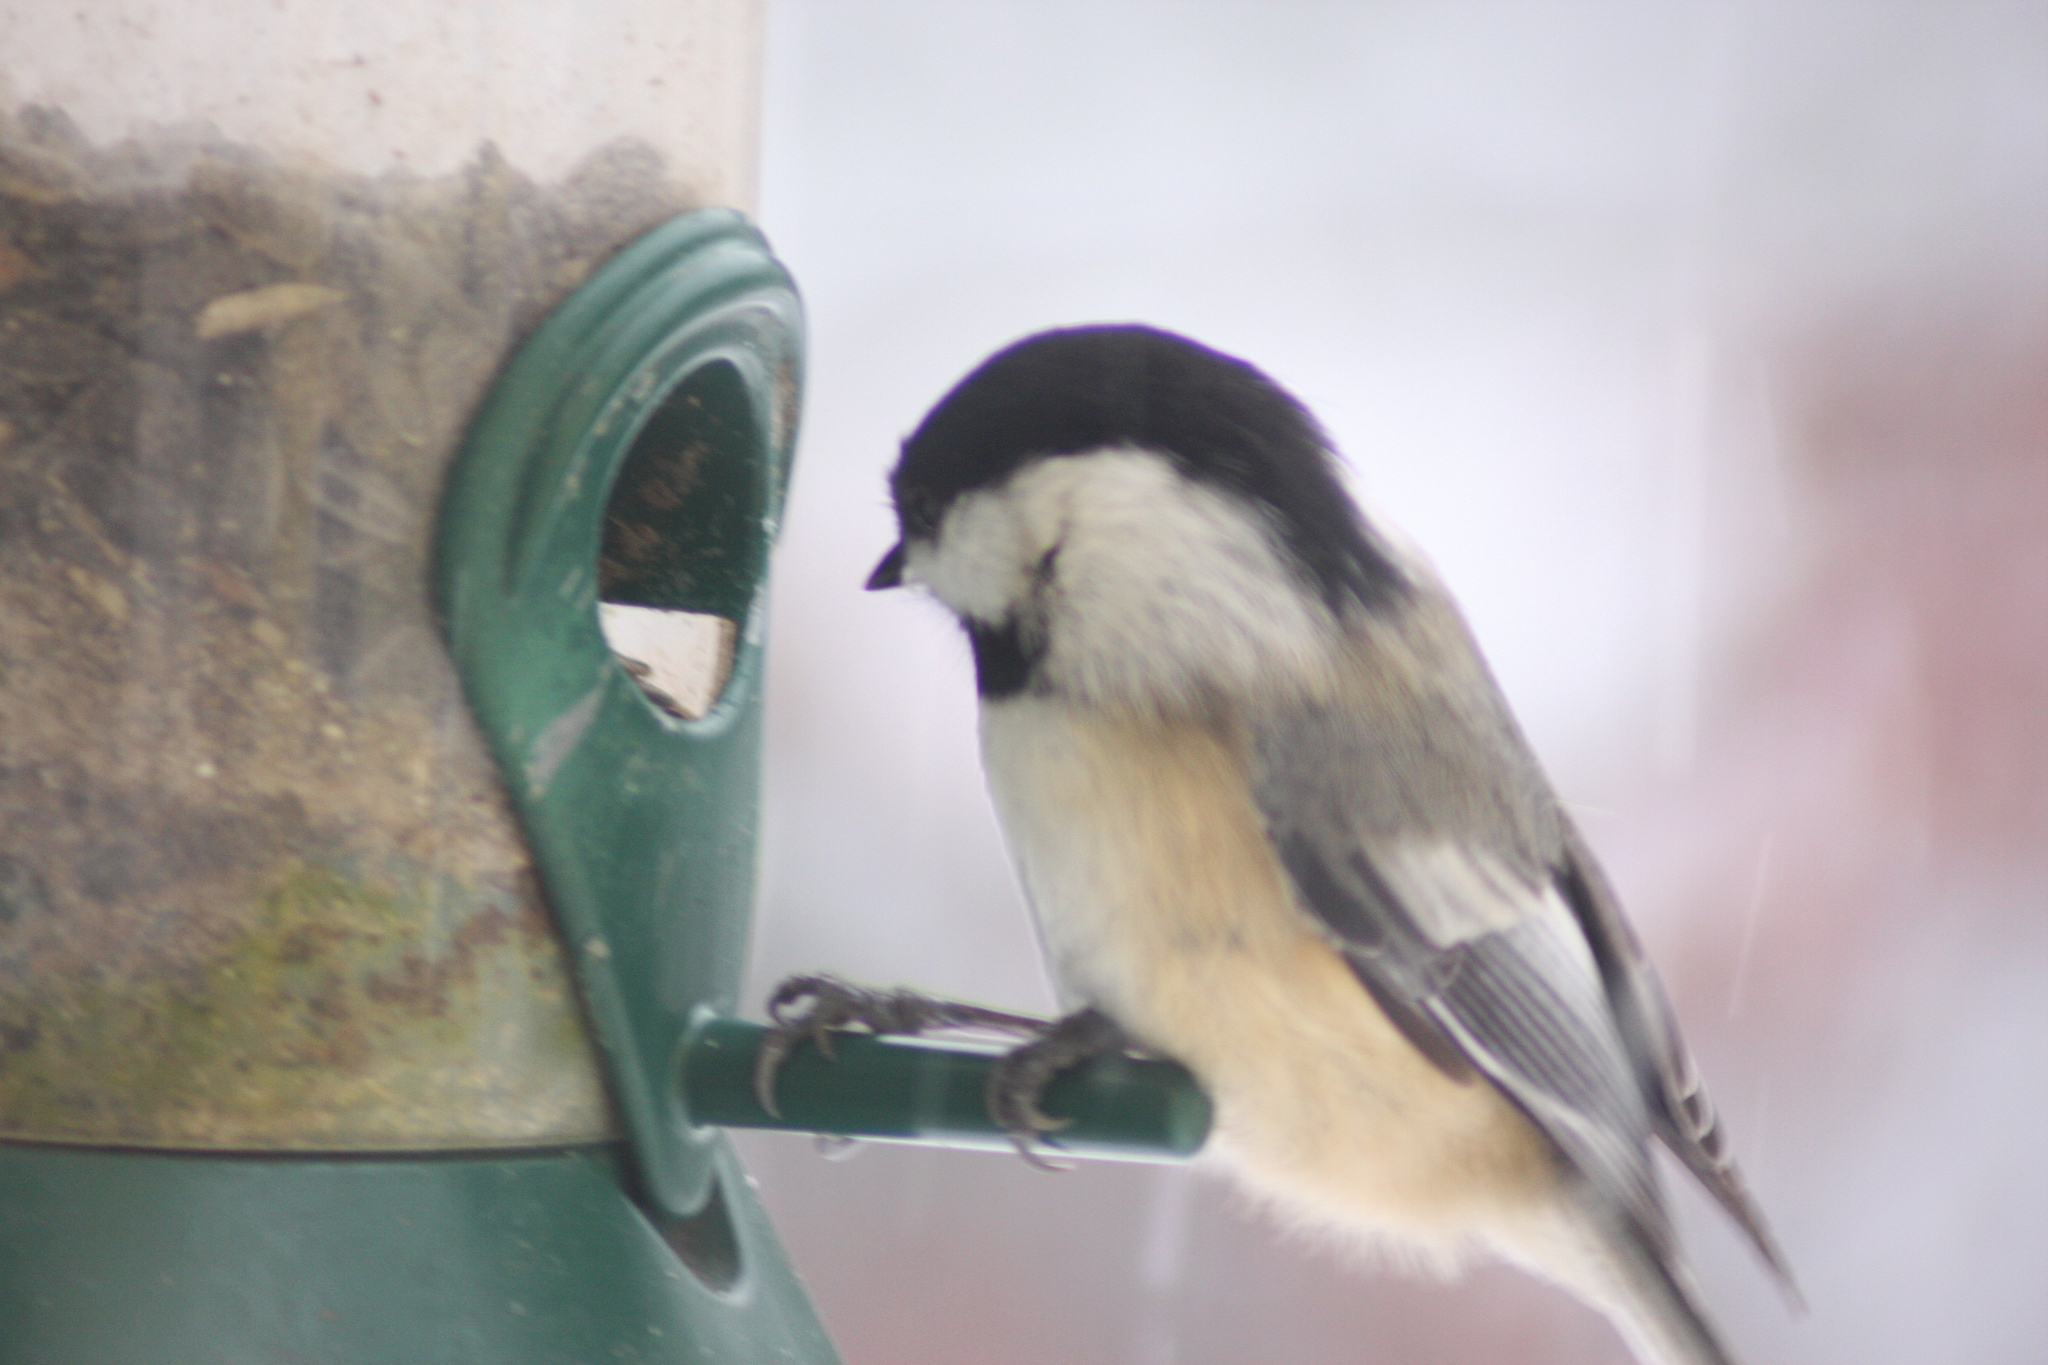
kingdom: Animalia
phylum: Chordata
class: Aves
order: Passeriformes
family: Paridae
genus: Poecile
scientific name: Poecile atricapillus
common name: Black-capped chickadee
